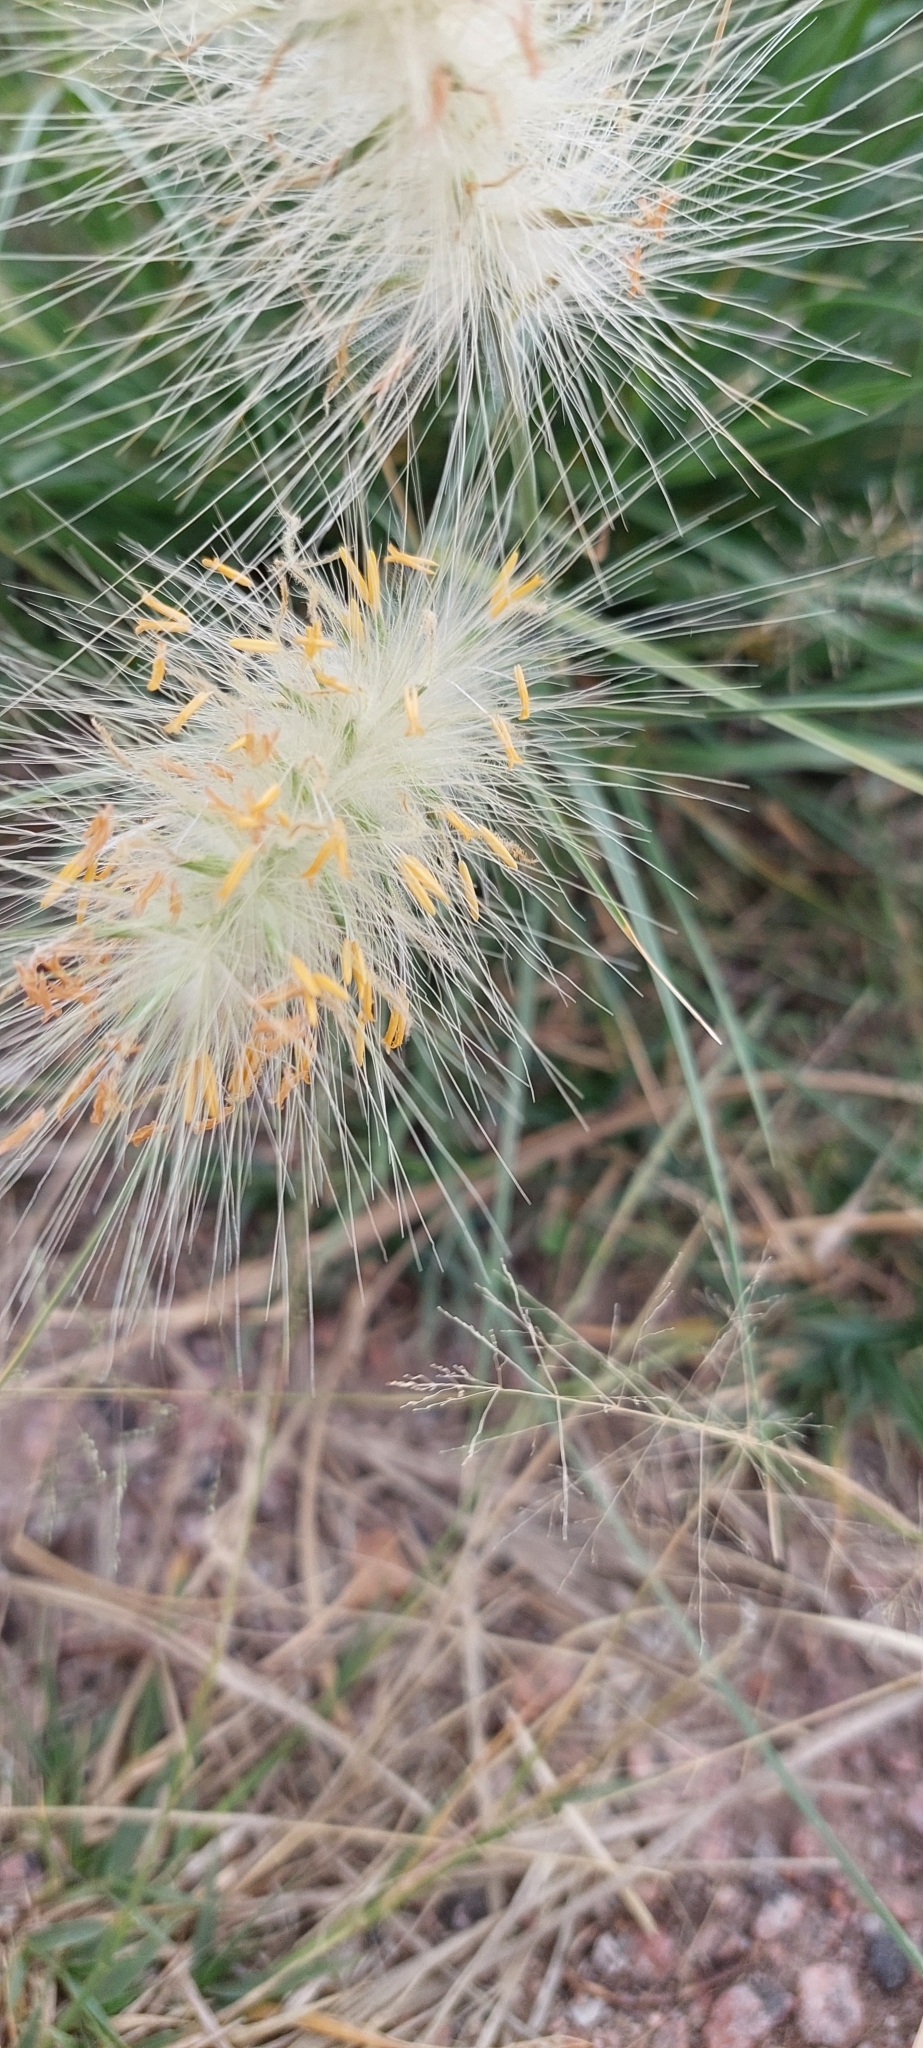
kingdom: Plantae
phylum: Tracheophyta
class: Liliopsida
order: Poales
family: Poaceae
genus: Cenchrus
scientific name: Cenchrus longisetus
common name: Feathertop
